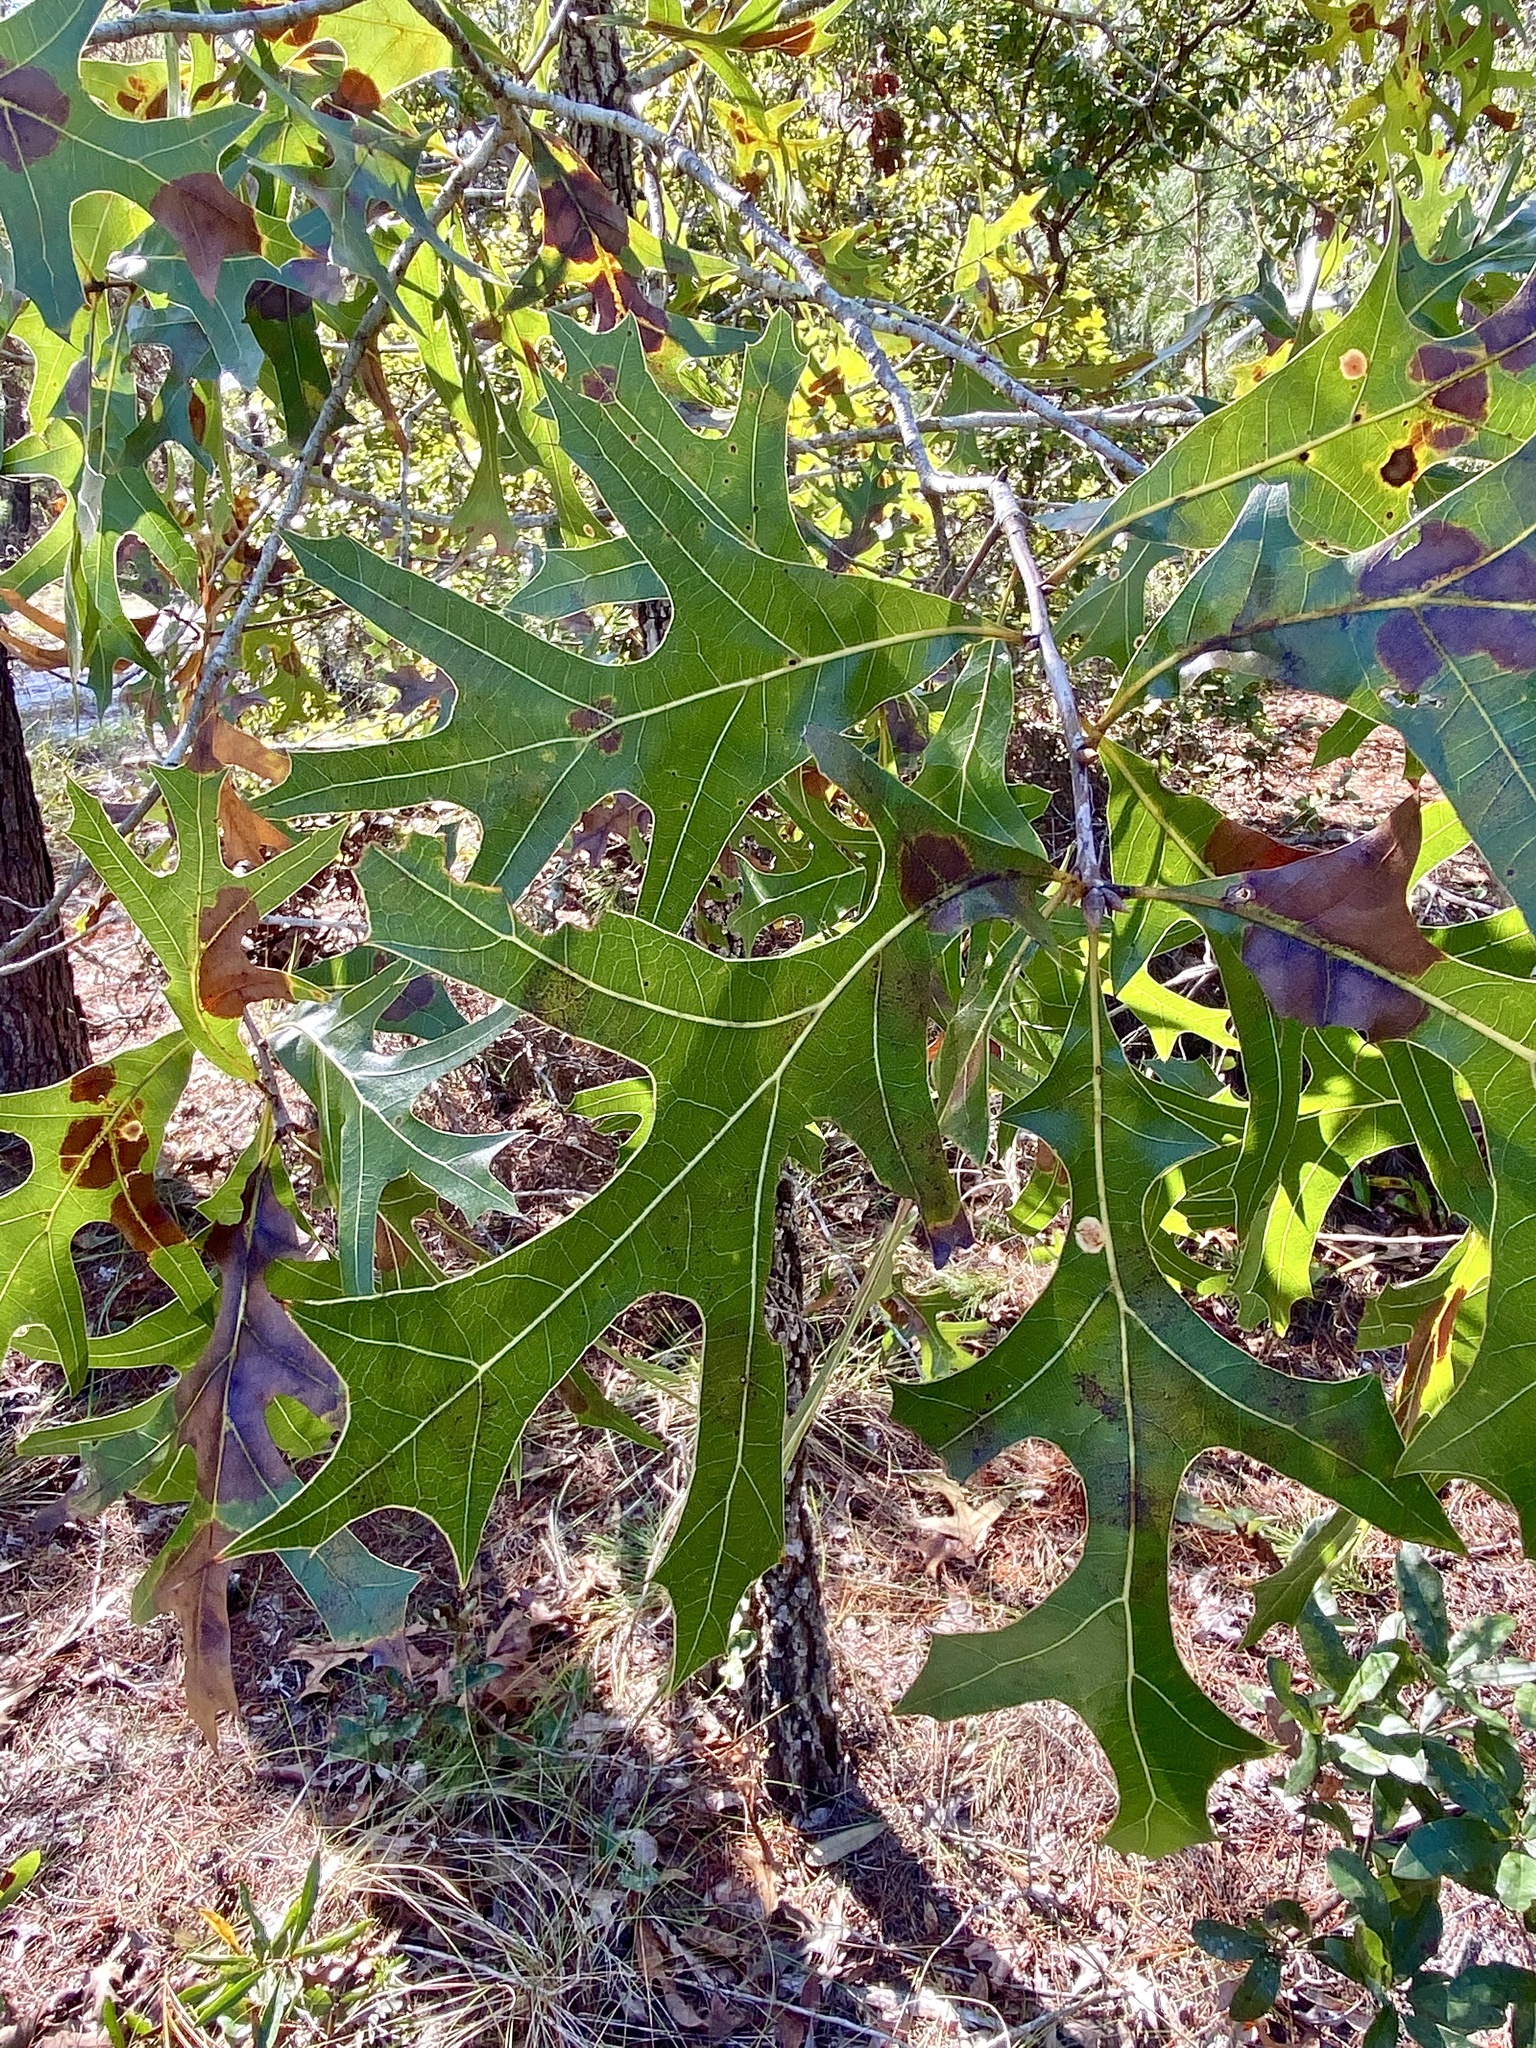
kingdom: Plantae
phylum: Tracheophyta
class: Magnoliopsida
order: Fagales
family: Fagaceae
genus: Quercus
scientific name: Quercus laevis
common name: Turkey oak
